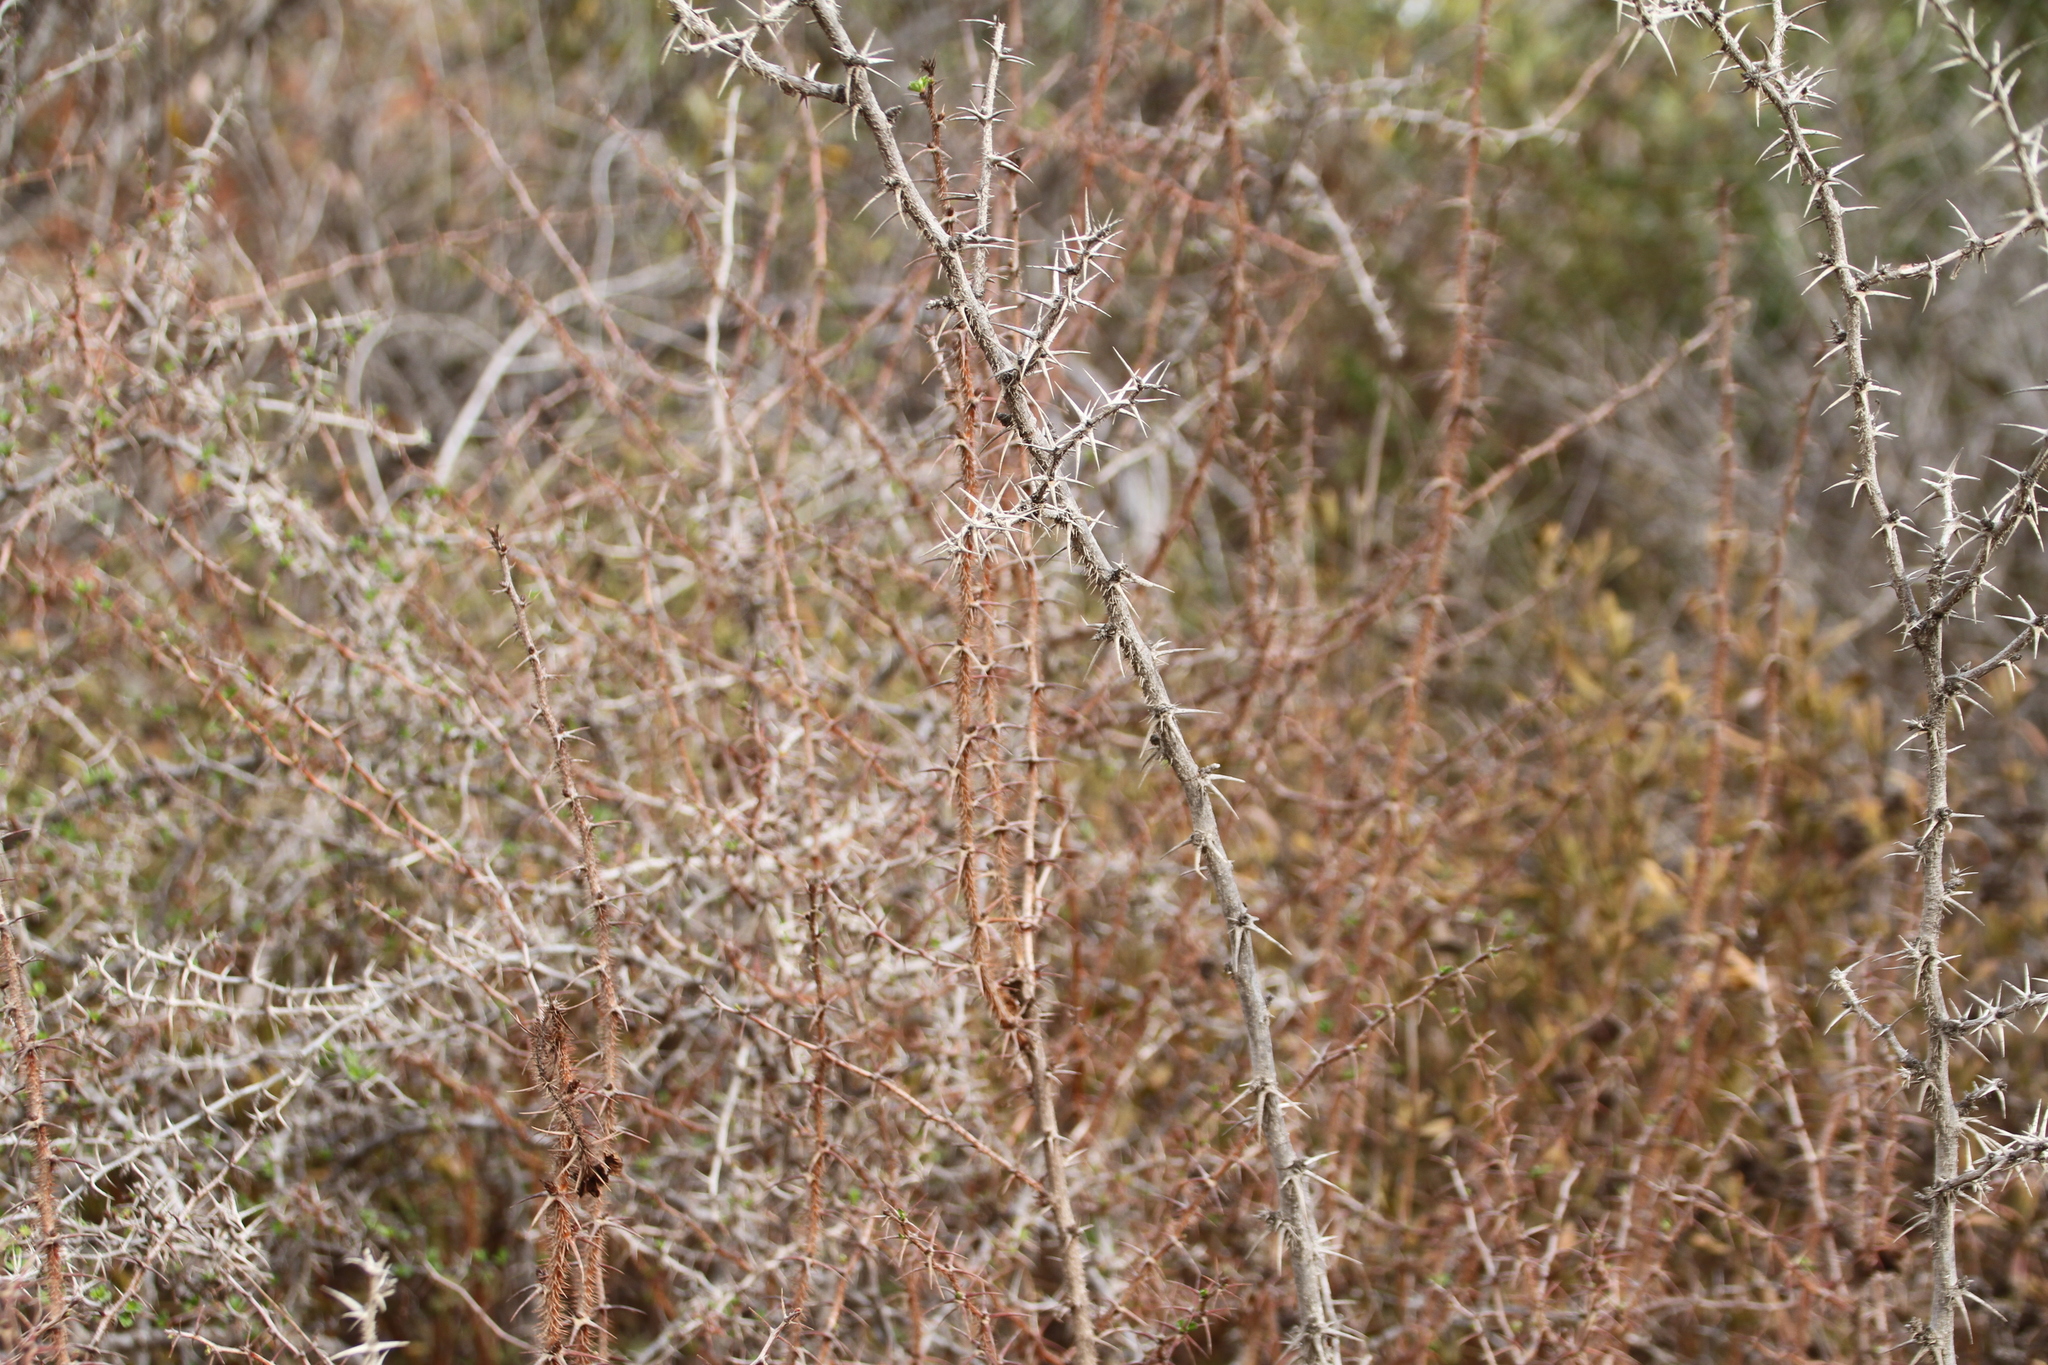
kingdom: Plantae
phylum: Tracheophyta
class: Magnoliopsida
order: Saxifragales
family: Grossulariaceae
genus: Ribes
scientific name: Ribes speciosum
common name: Fuchsia-flower gooseberry
